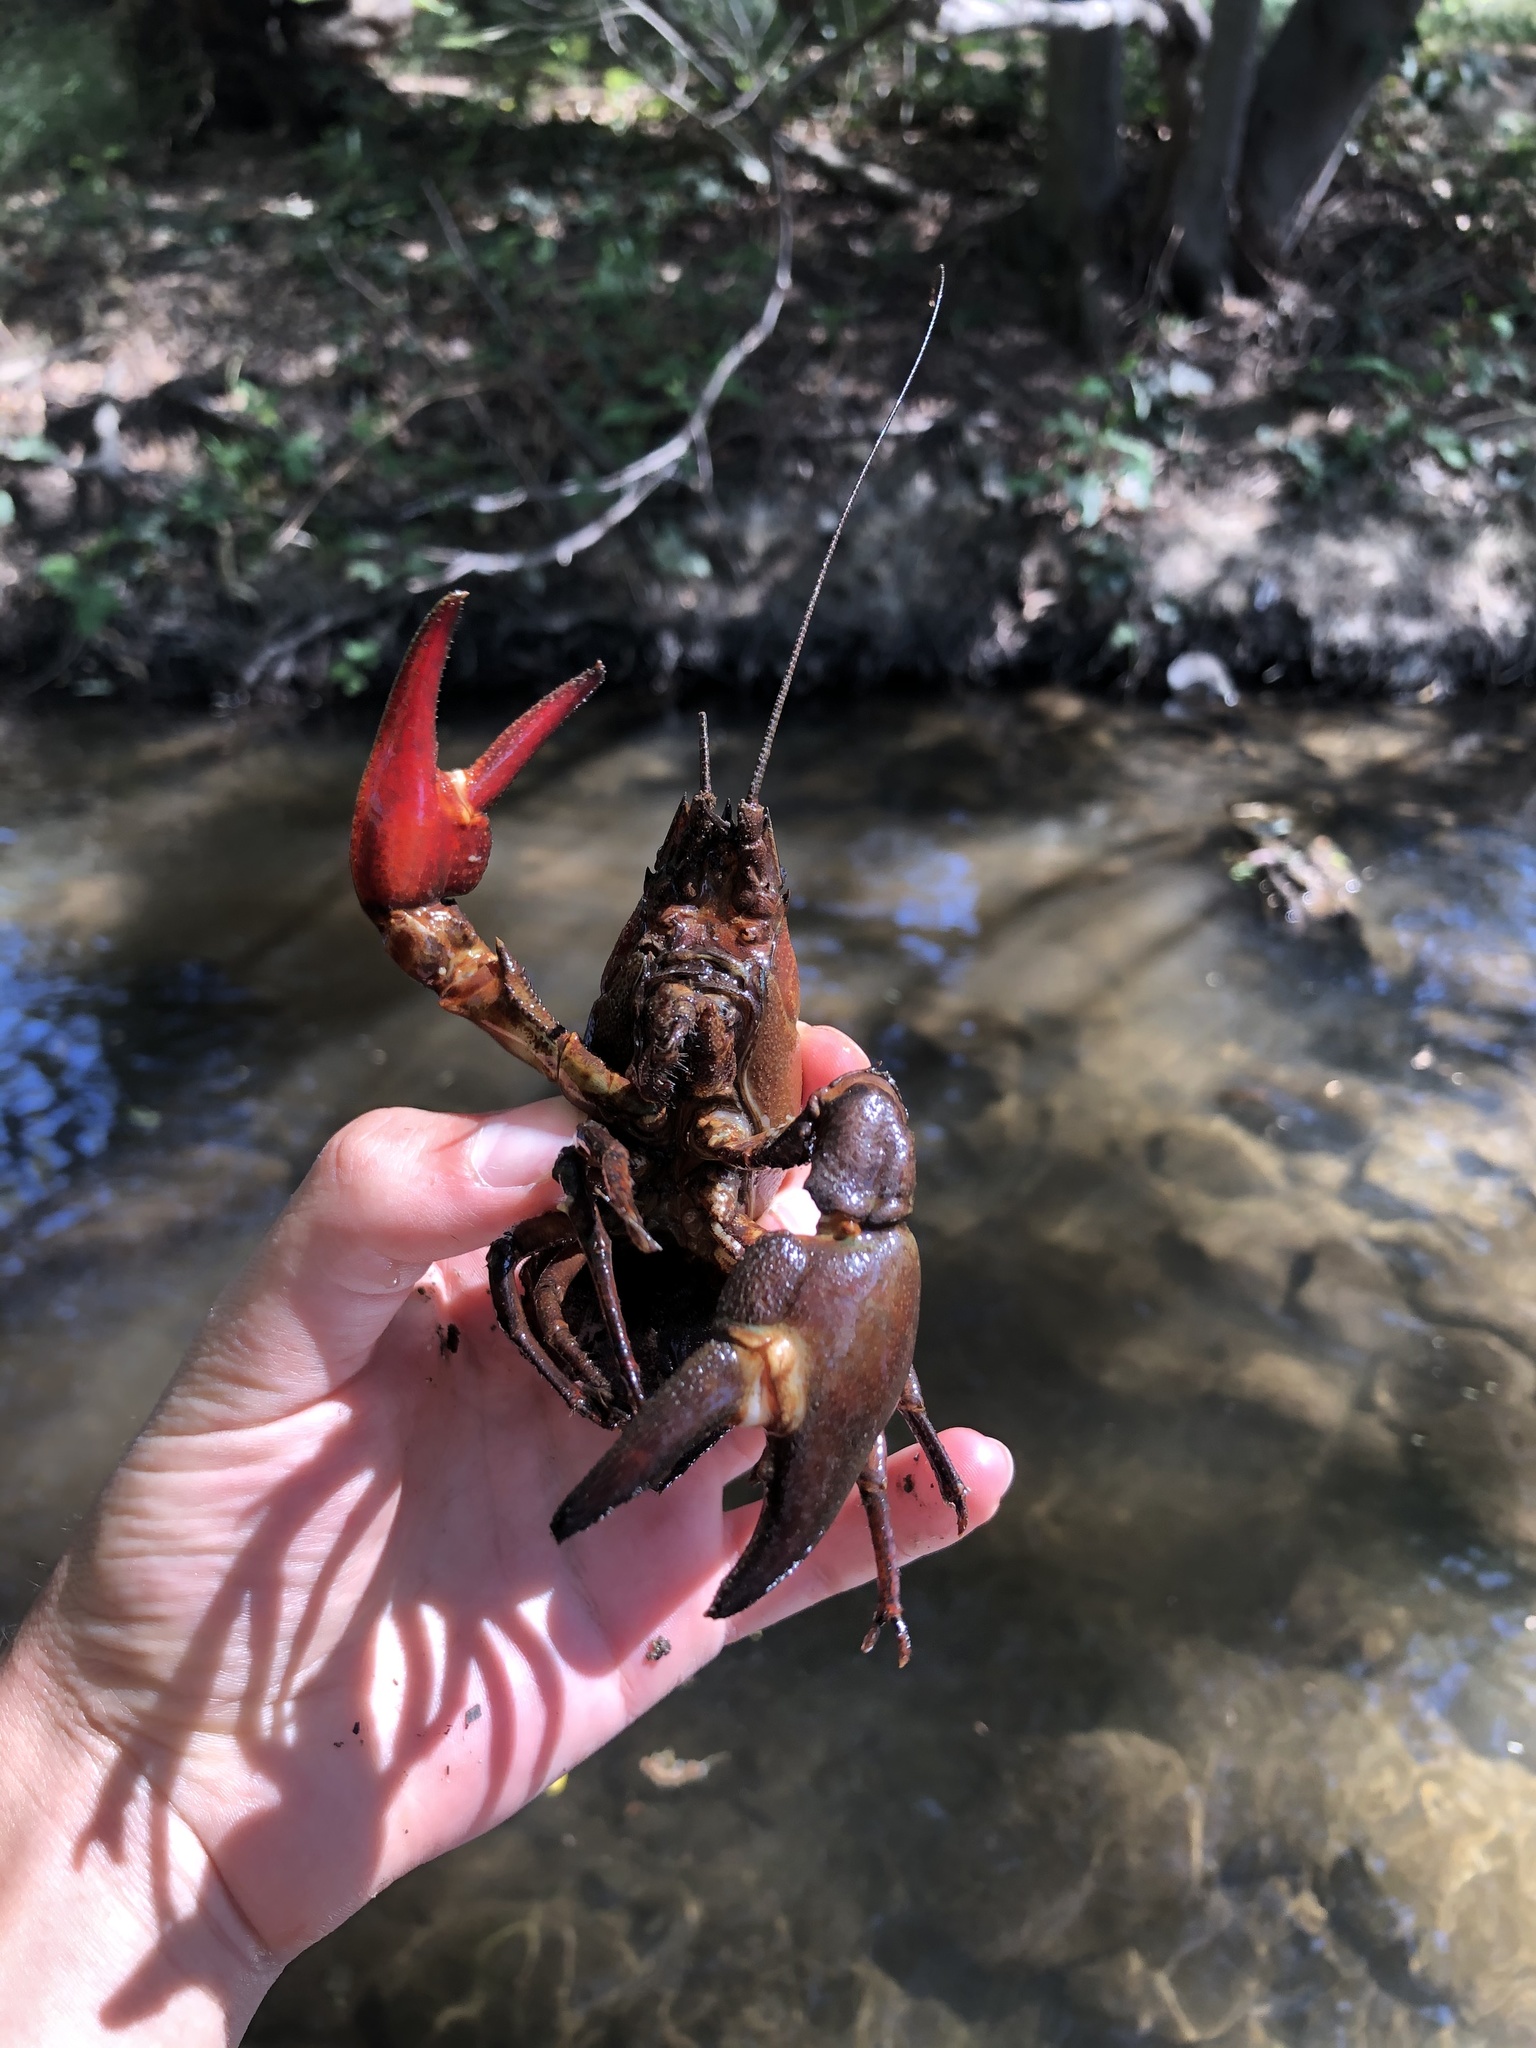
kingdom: Animalia
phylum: Arthropoda
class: Malacostraca
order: Decapoda
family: Astacidae
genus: Pacifastacus
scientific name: Pacifastacus leniusculus
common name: Signal crayfish
